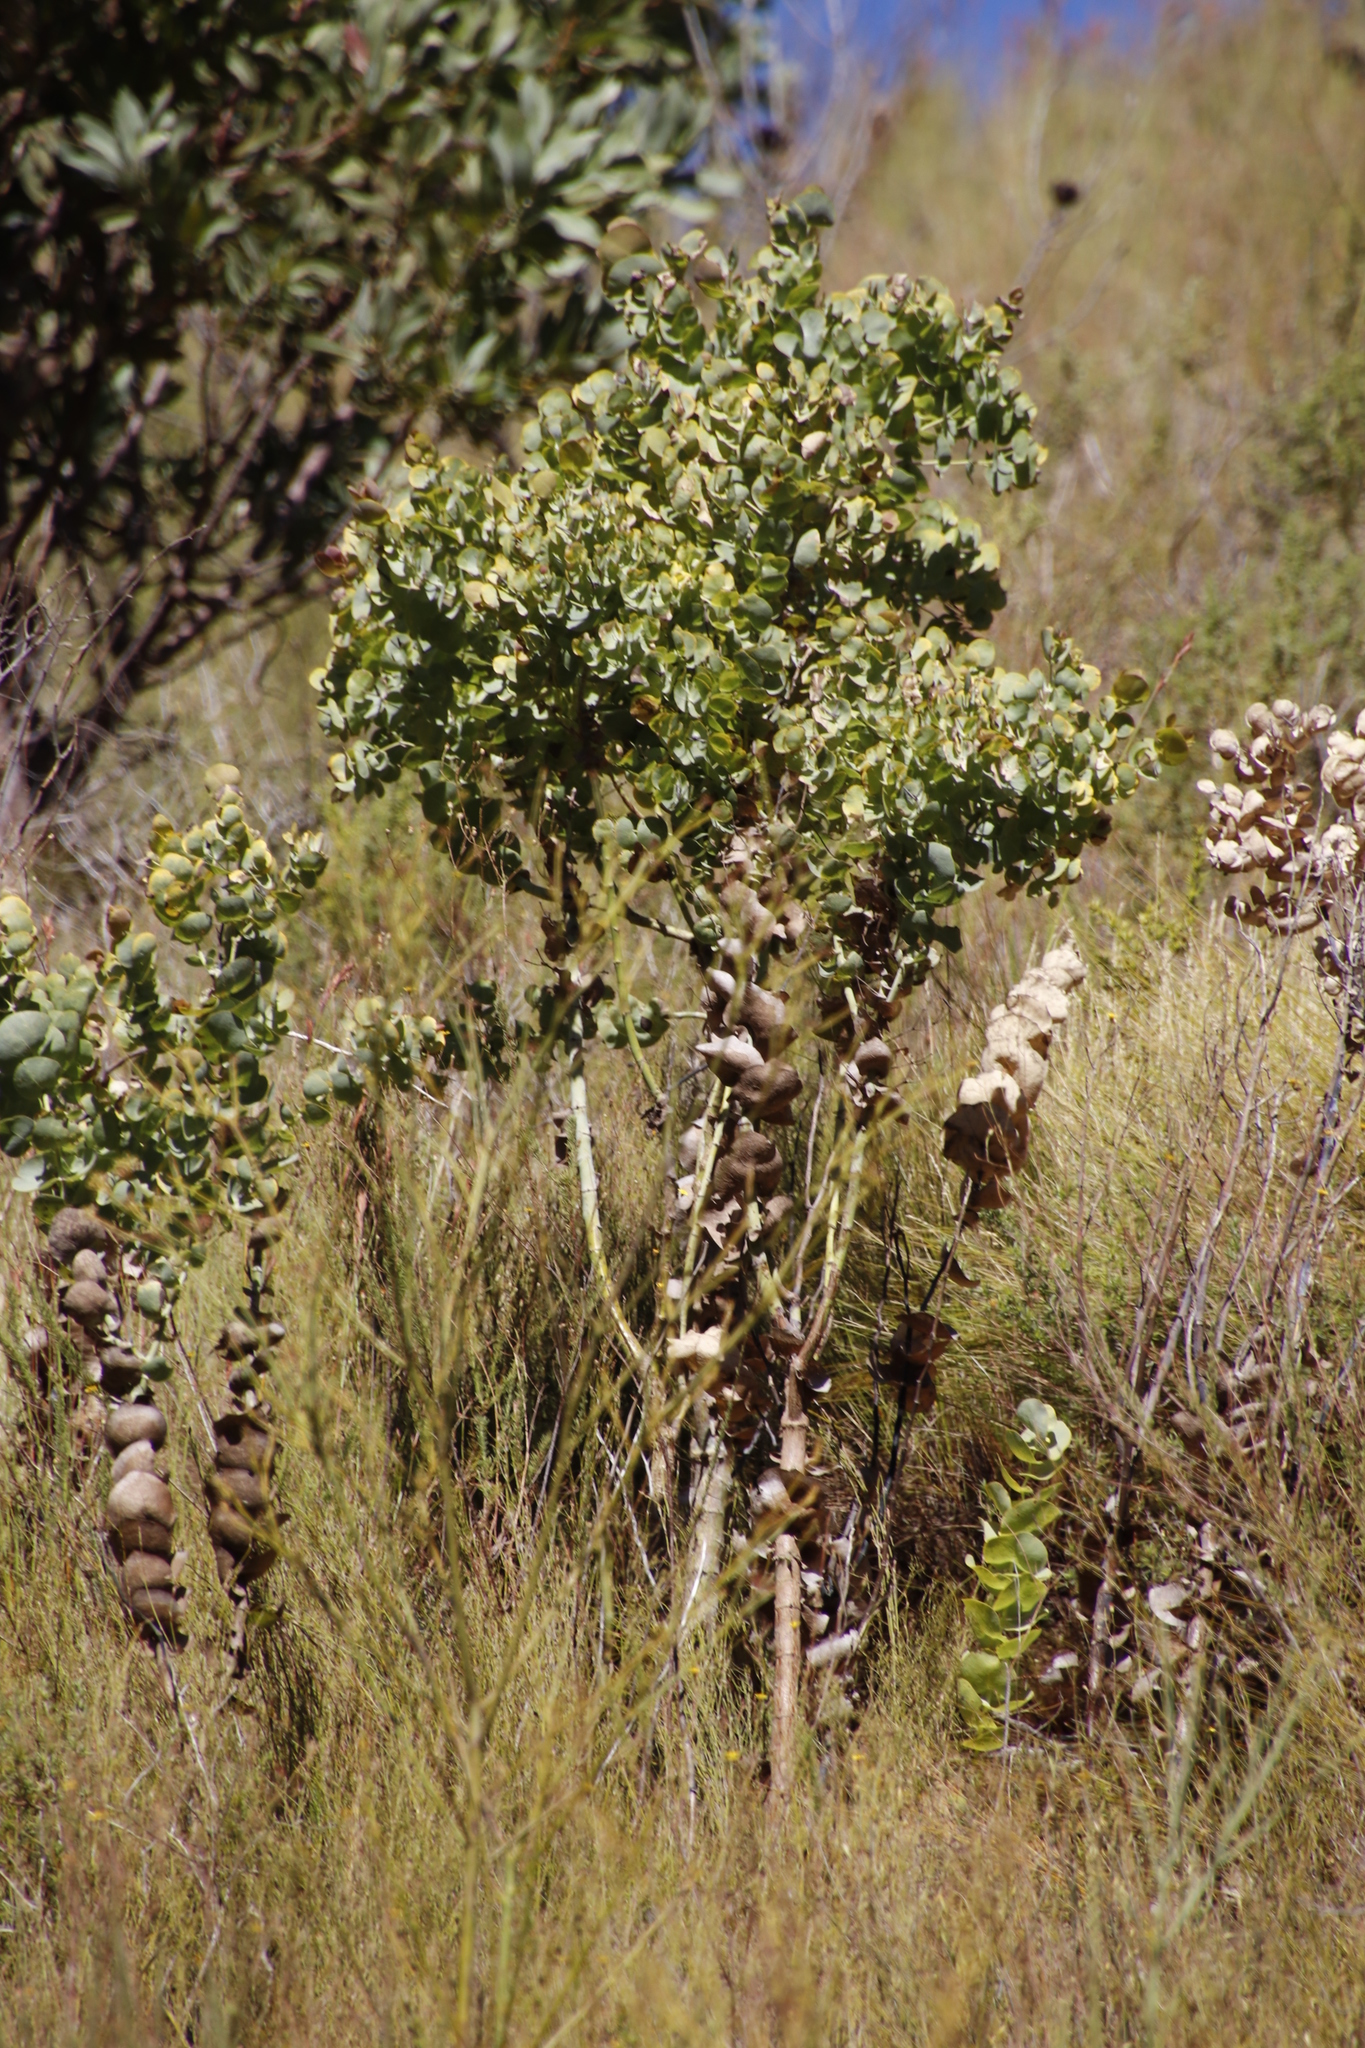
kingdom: Plantae
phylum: Tracheophyta
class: Magnoliopsida
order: Fabales
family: Fabaceae
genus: Rafnia
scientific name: Rafnia amplexicaulis
